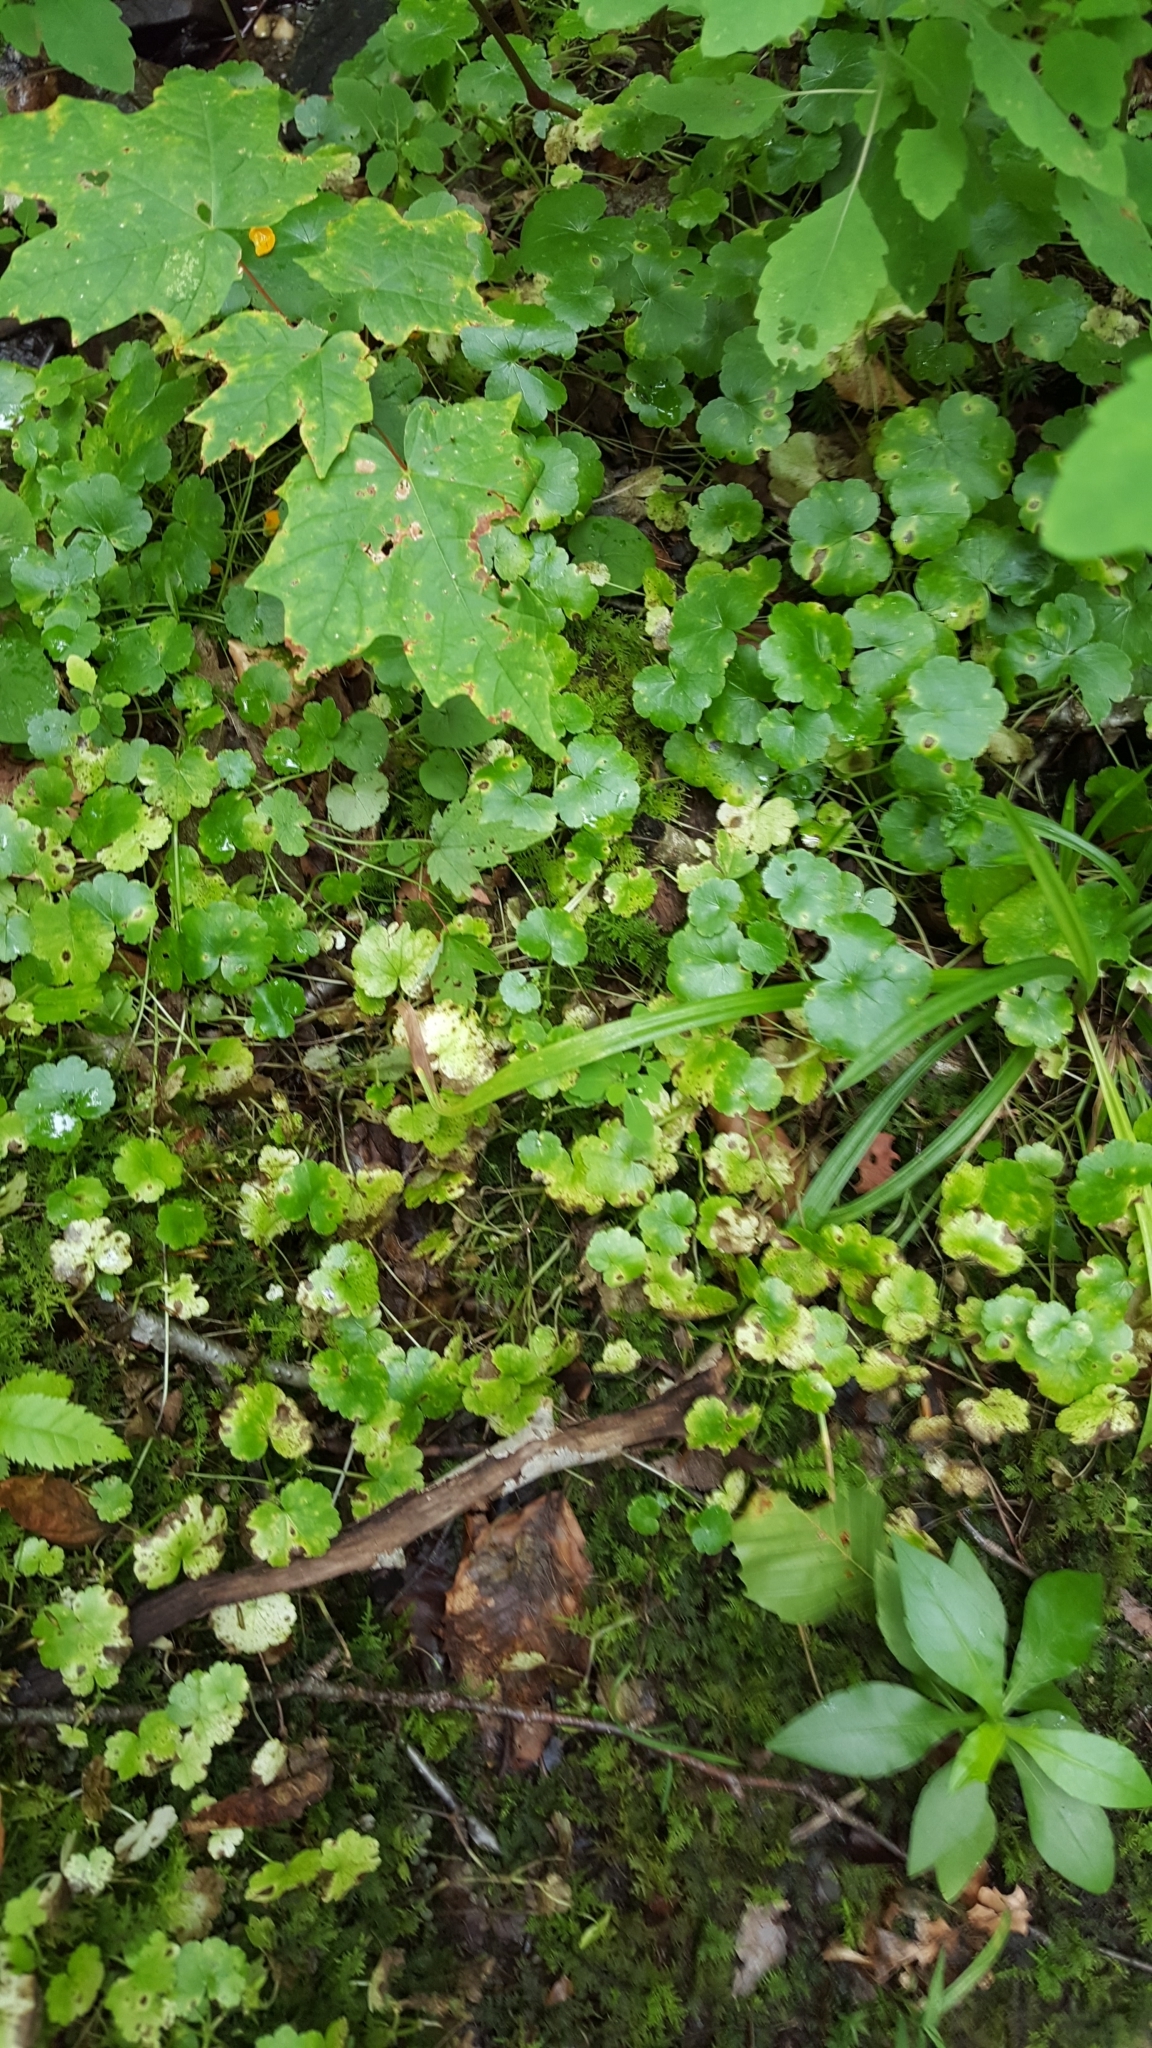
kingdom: Plantae
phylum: Tracheophyta
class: Magnoliopsida
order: Apiales
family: Araliaceae
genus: Hydrocotyle
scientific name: Hydrocotyle americana
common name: American water-pennywort
